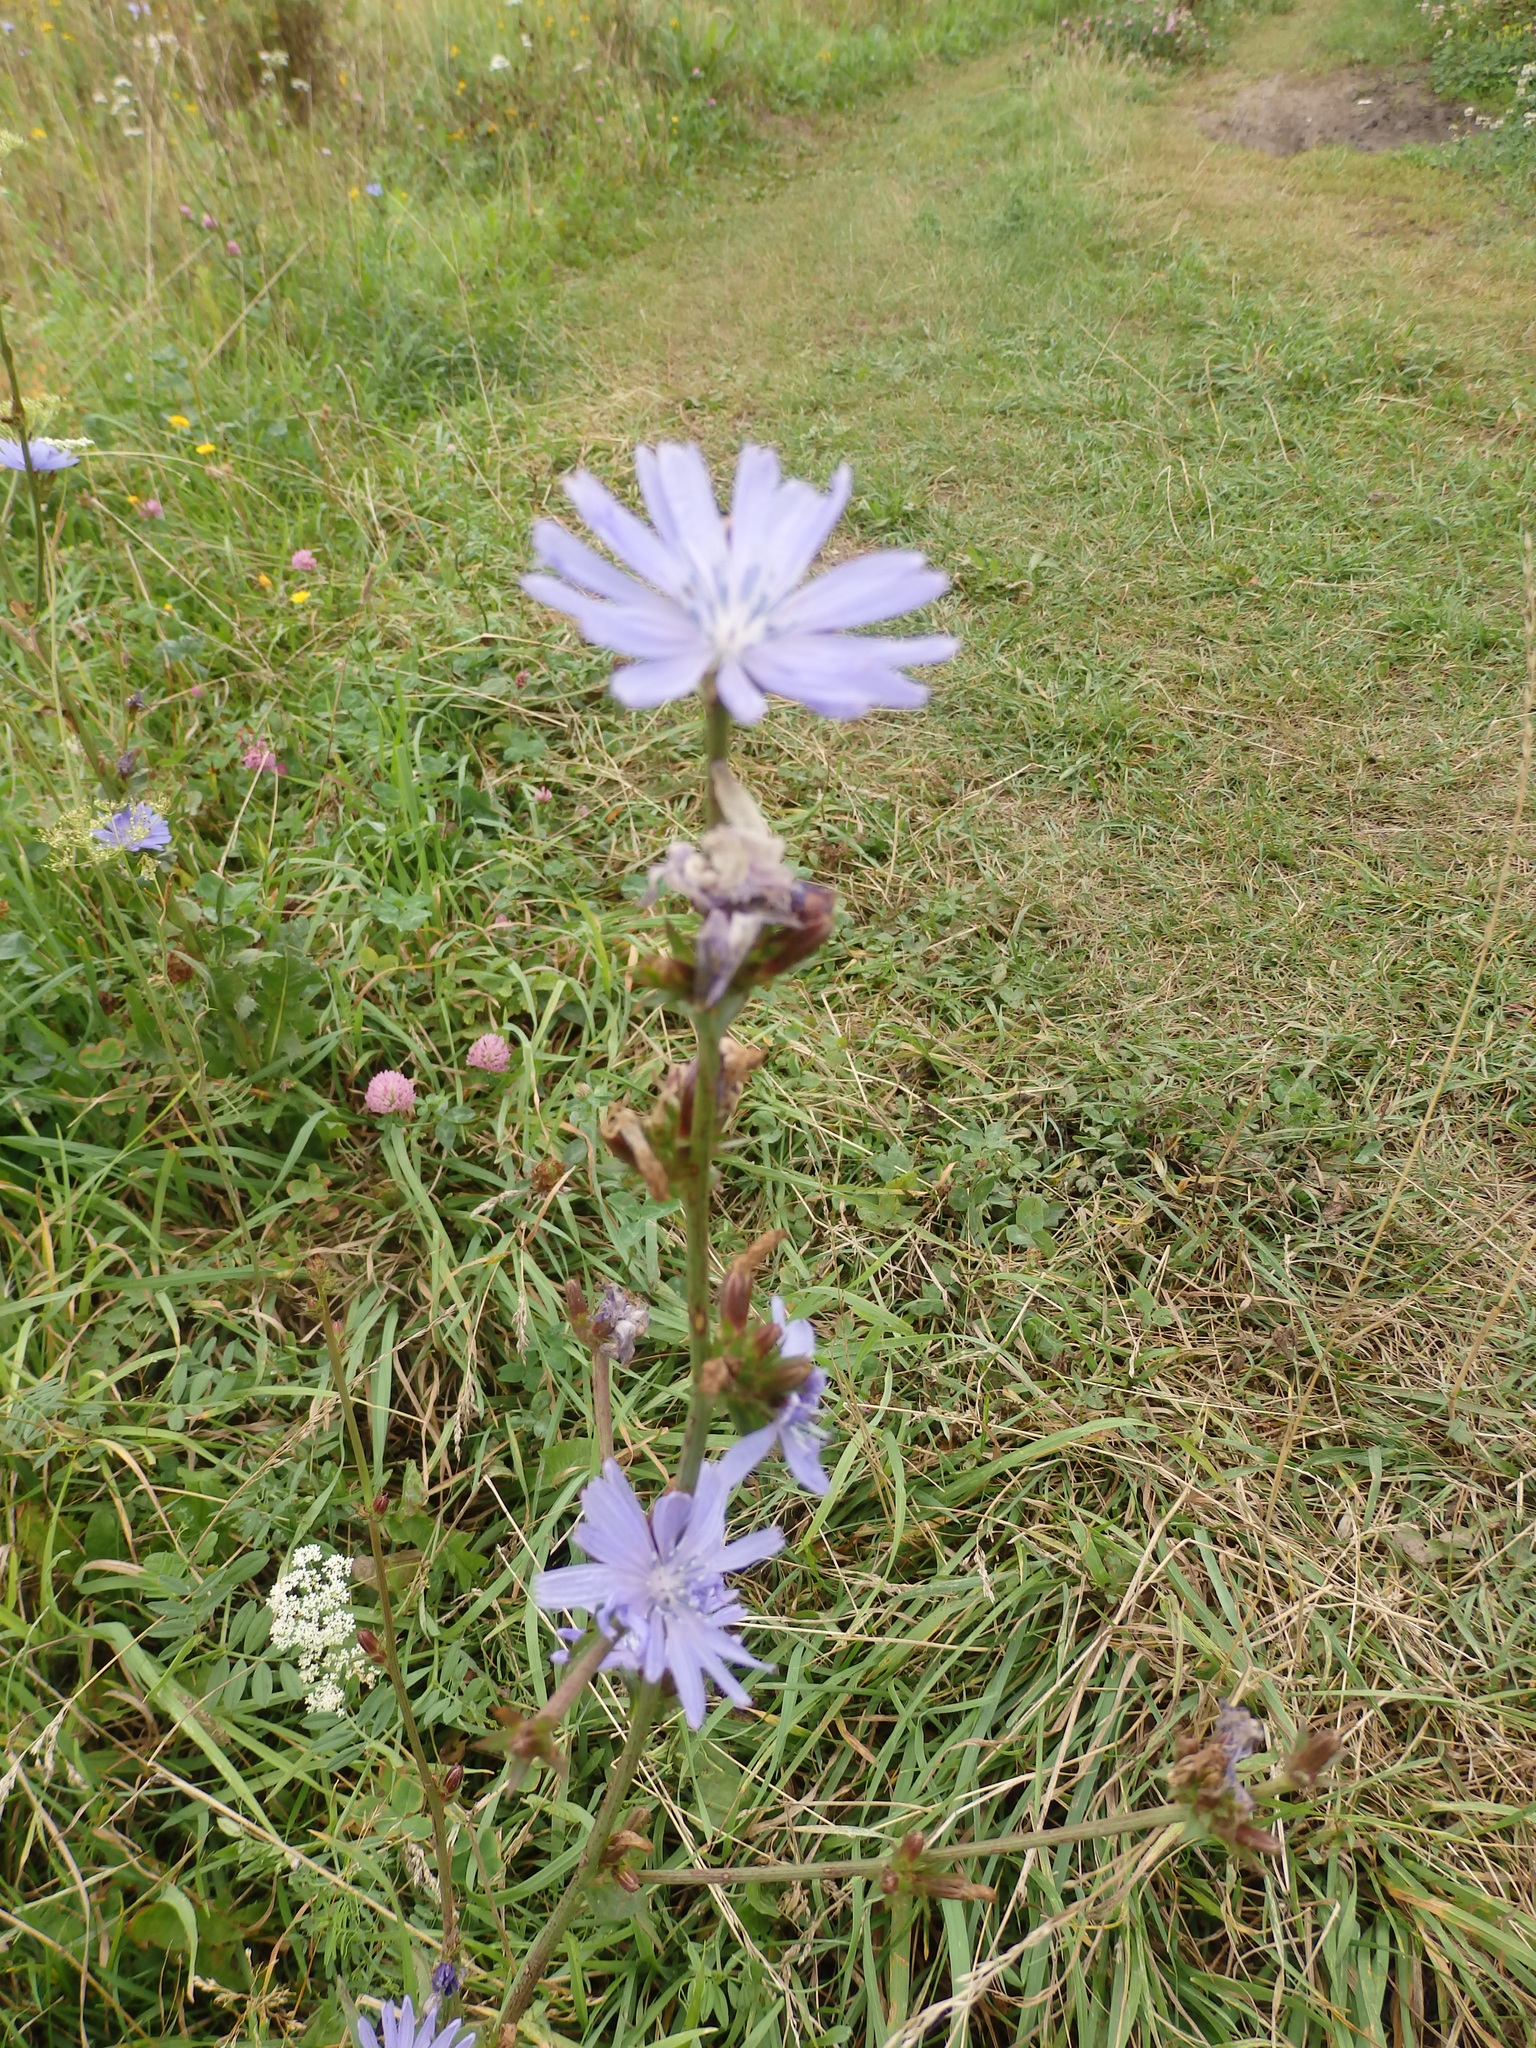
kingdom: Plantae
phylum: Tracheophyta
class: Magnoliopsida
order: Asterales
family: Asteraceae
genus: Cichorium
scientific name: Cichorium intybus
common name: Chicory
